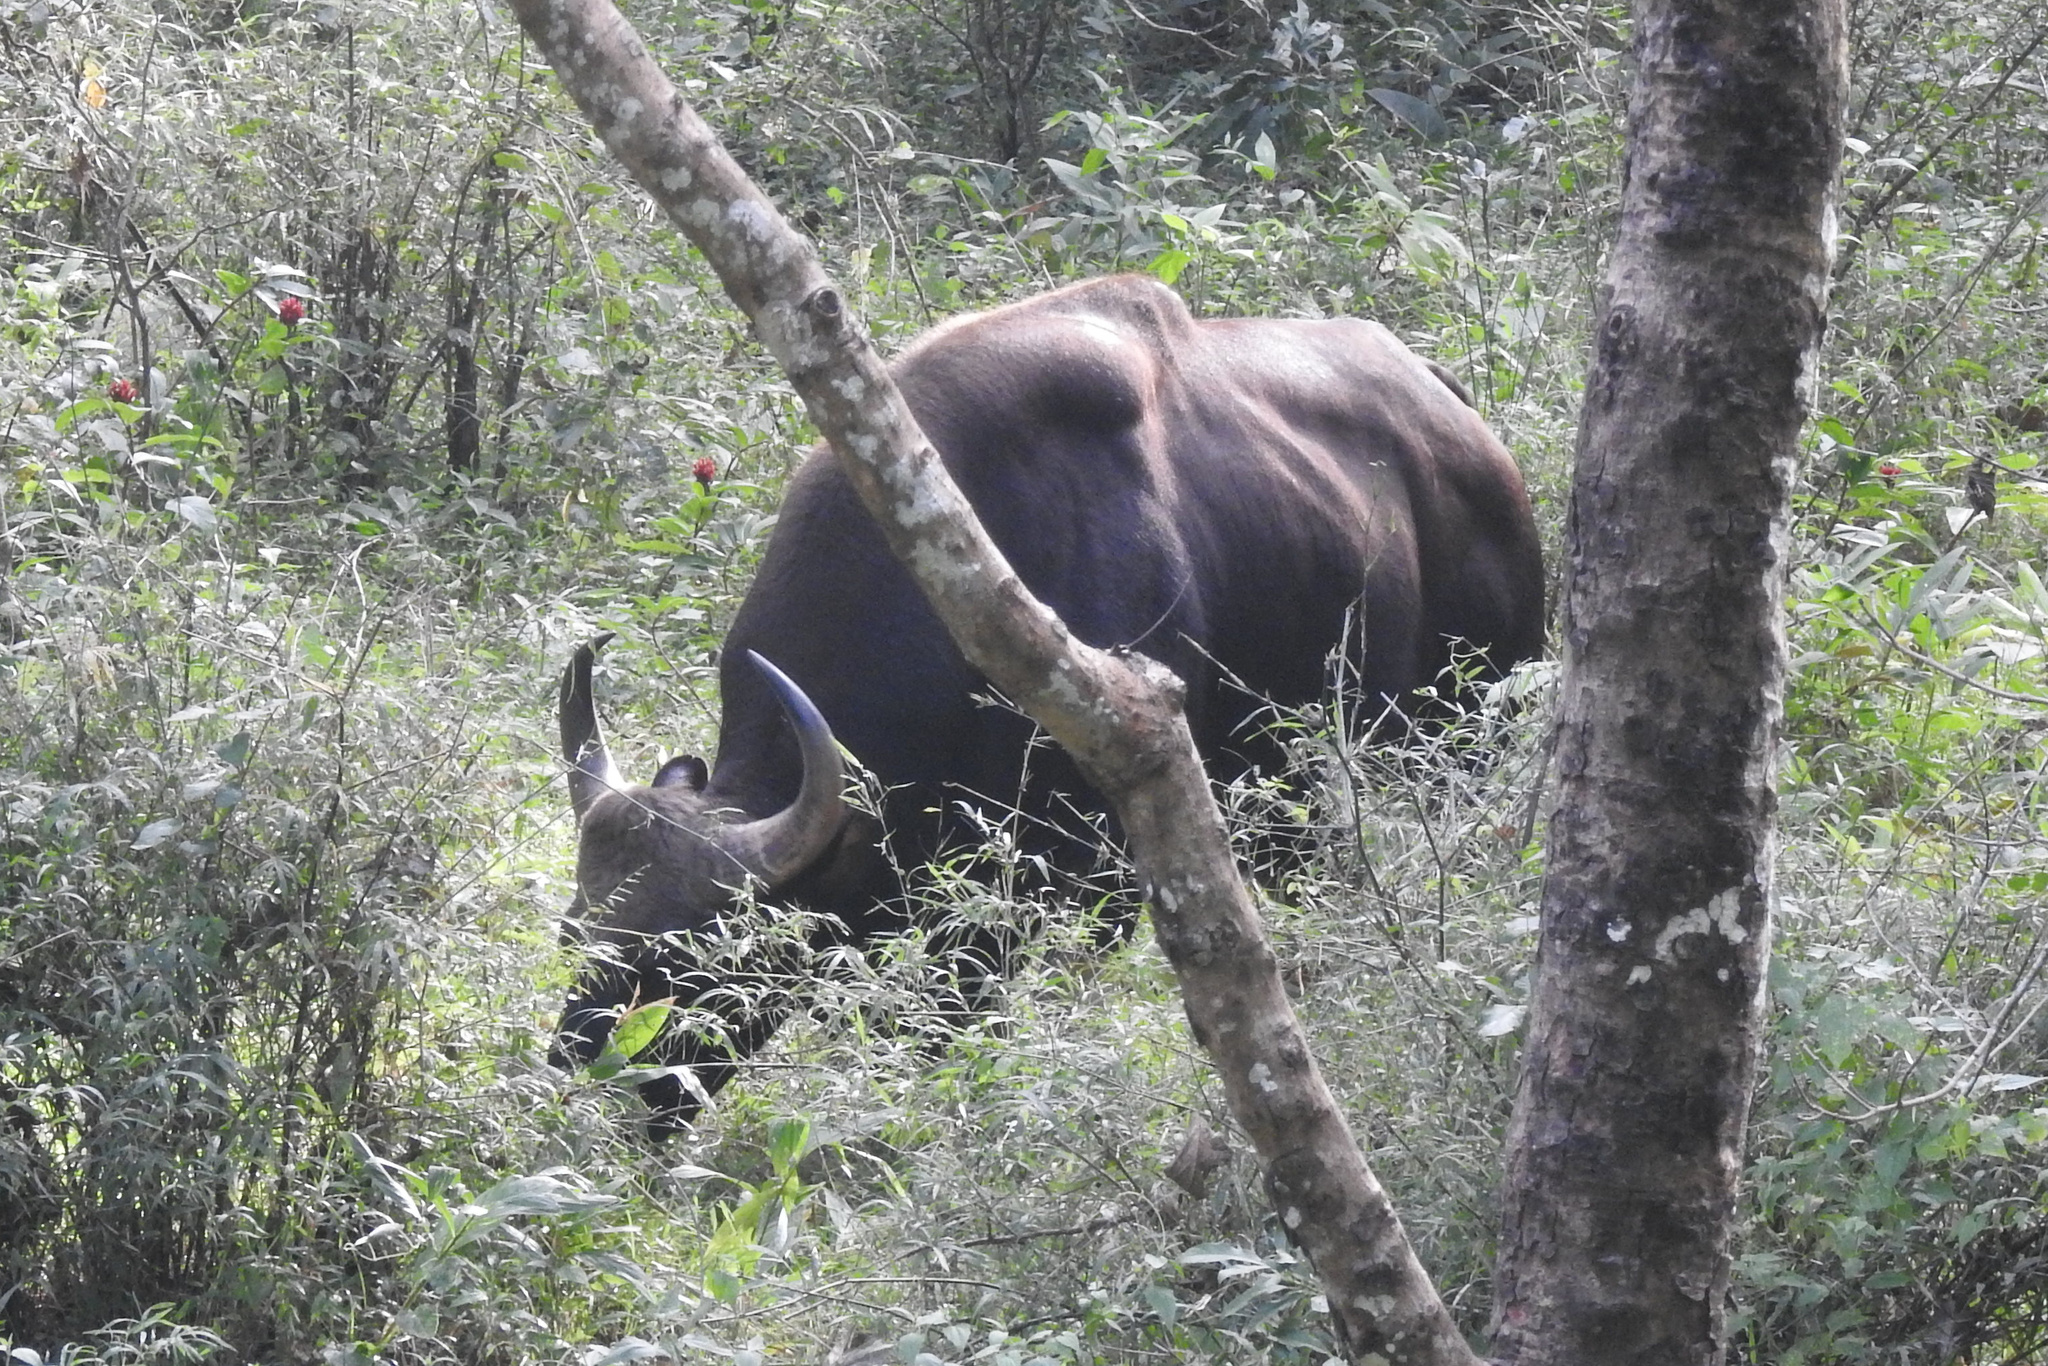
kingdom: Animalia
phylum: Chordata
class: Mammalia
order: Artiodactyla
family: Bovidae
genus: Bos
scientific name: Bos frontalis
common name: Gaur
